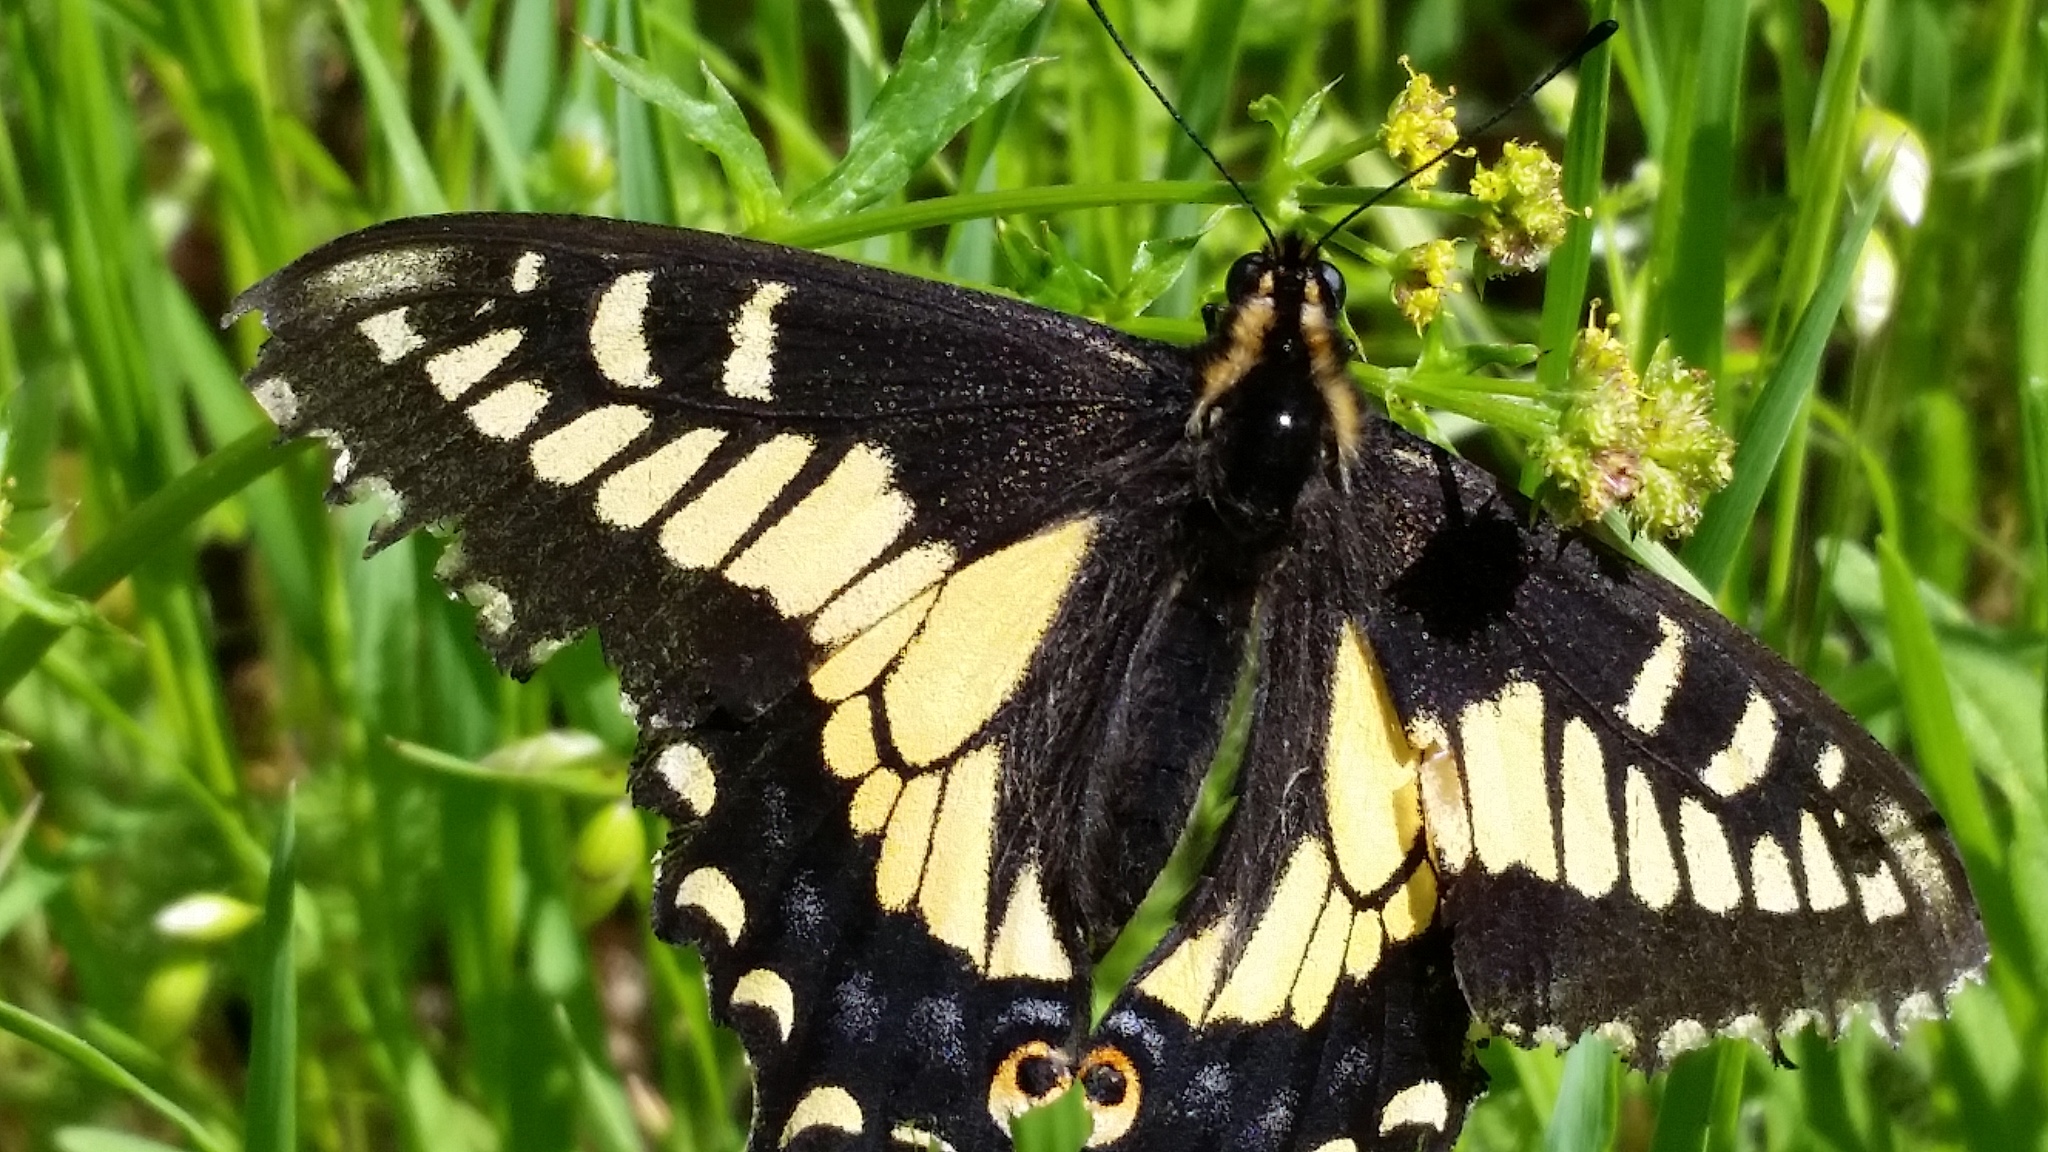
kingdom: Animalia
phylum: Arthropoda
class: Insecta
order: Lepidoptera
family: Papilionidae
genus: Papilio
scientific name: Papilio zelicaon
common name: Anise swallowtail
